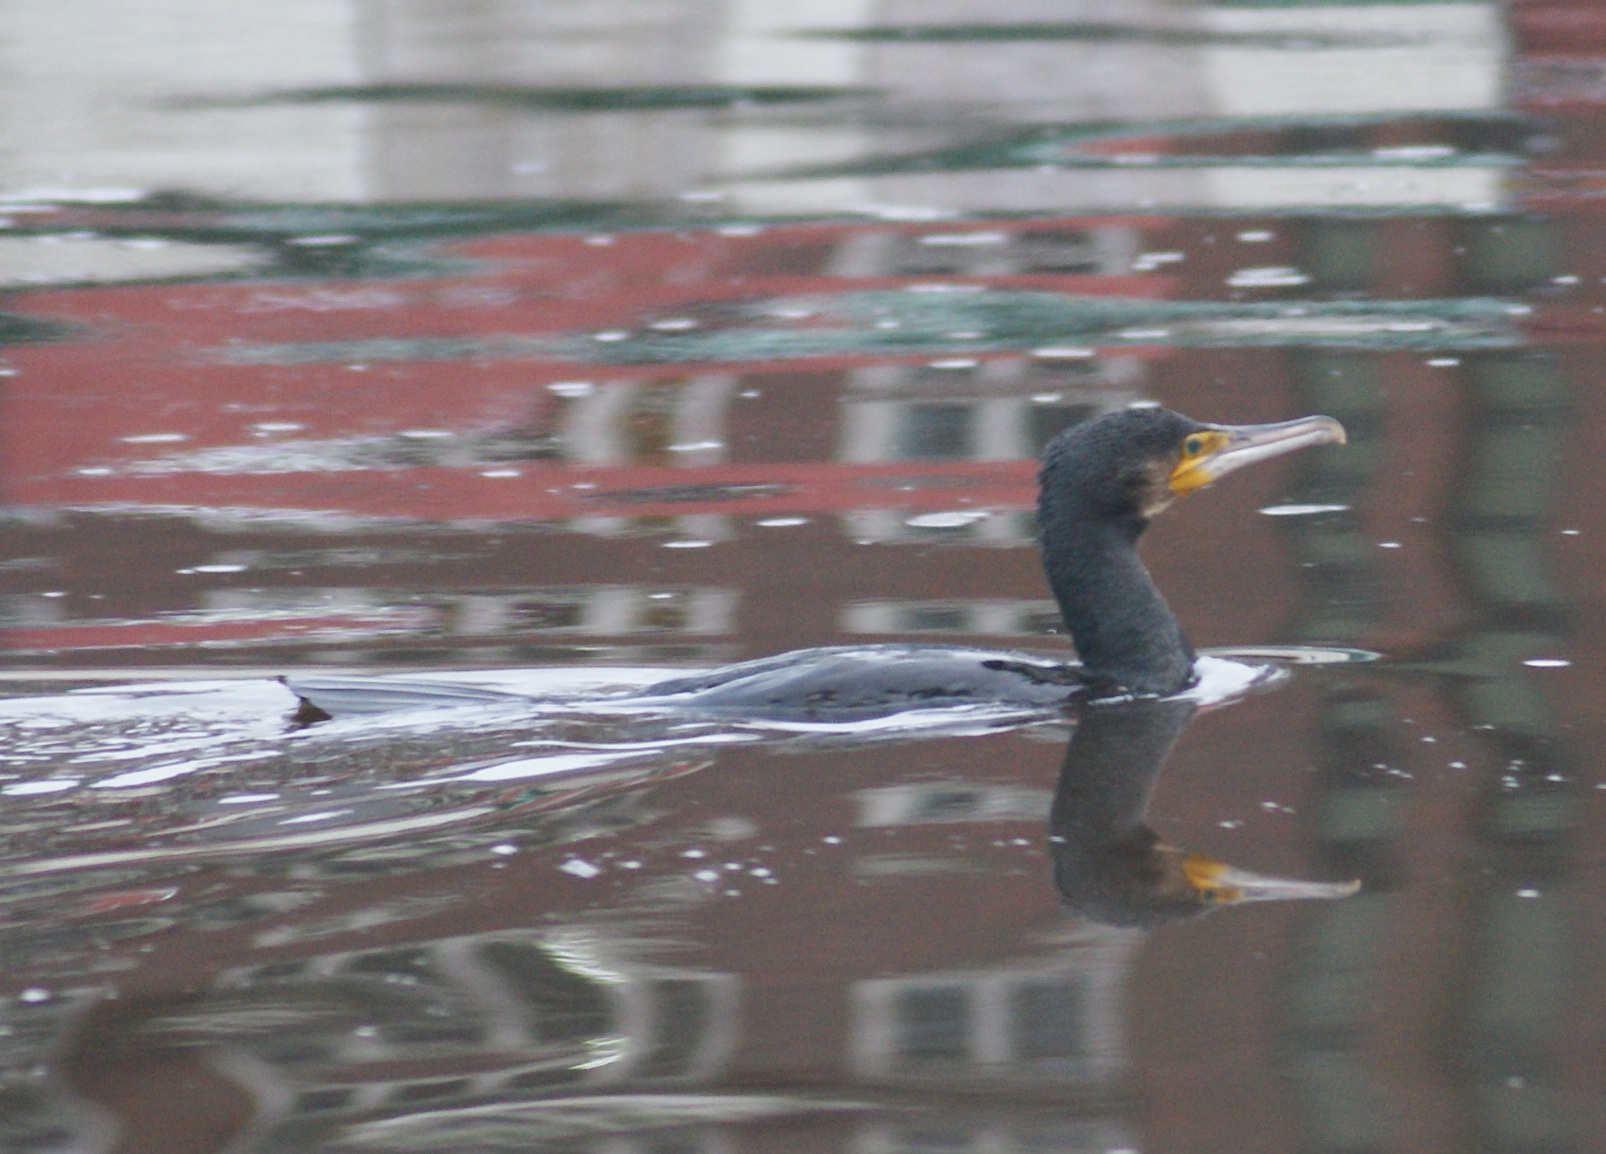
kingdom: Animalia
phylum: Chordata
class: Aves
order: Suliformes
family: Phalacrocoracidae
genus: Phalacrocorax
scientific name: Phalacrocorax carbo
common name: Great cormorant
